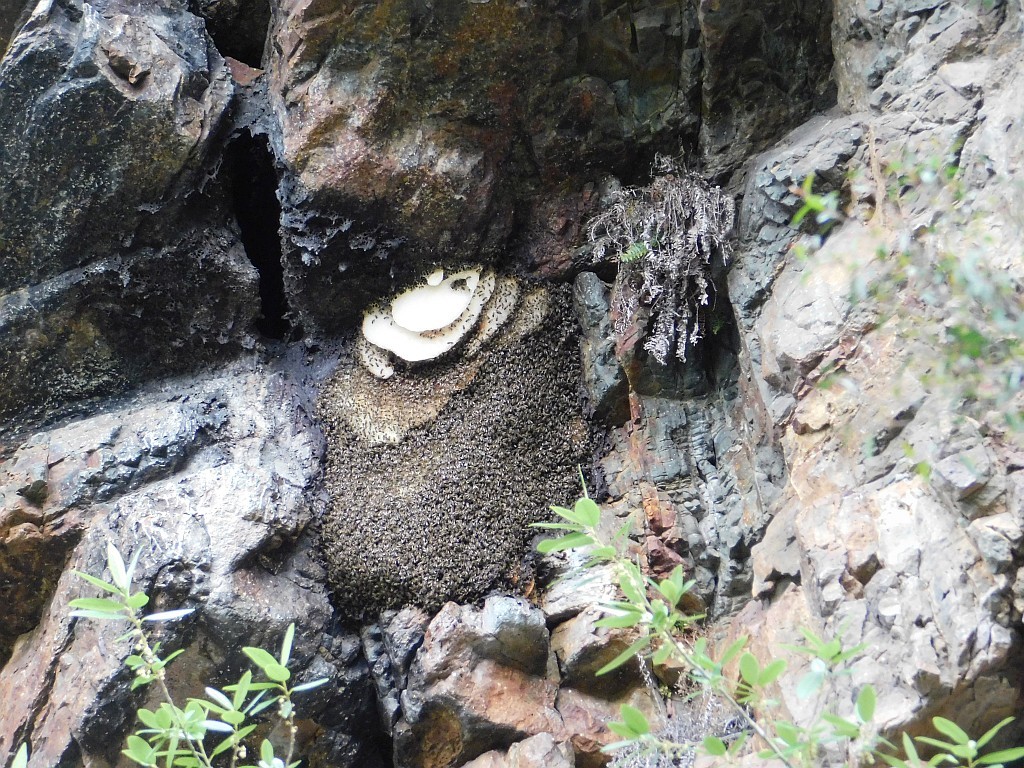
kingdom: Animalia
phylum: Arthropoda
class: Insecta
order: Hymenoptera
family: Apidae
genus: Apis
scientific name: Apis mellifera
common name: Honey bee
